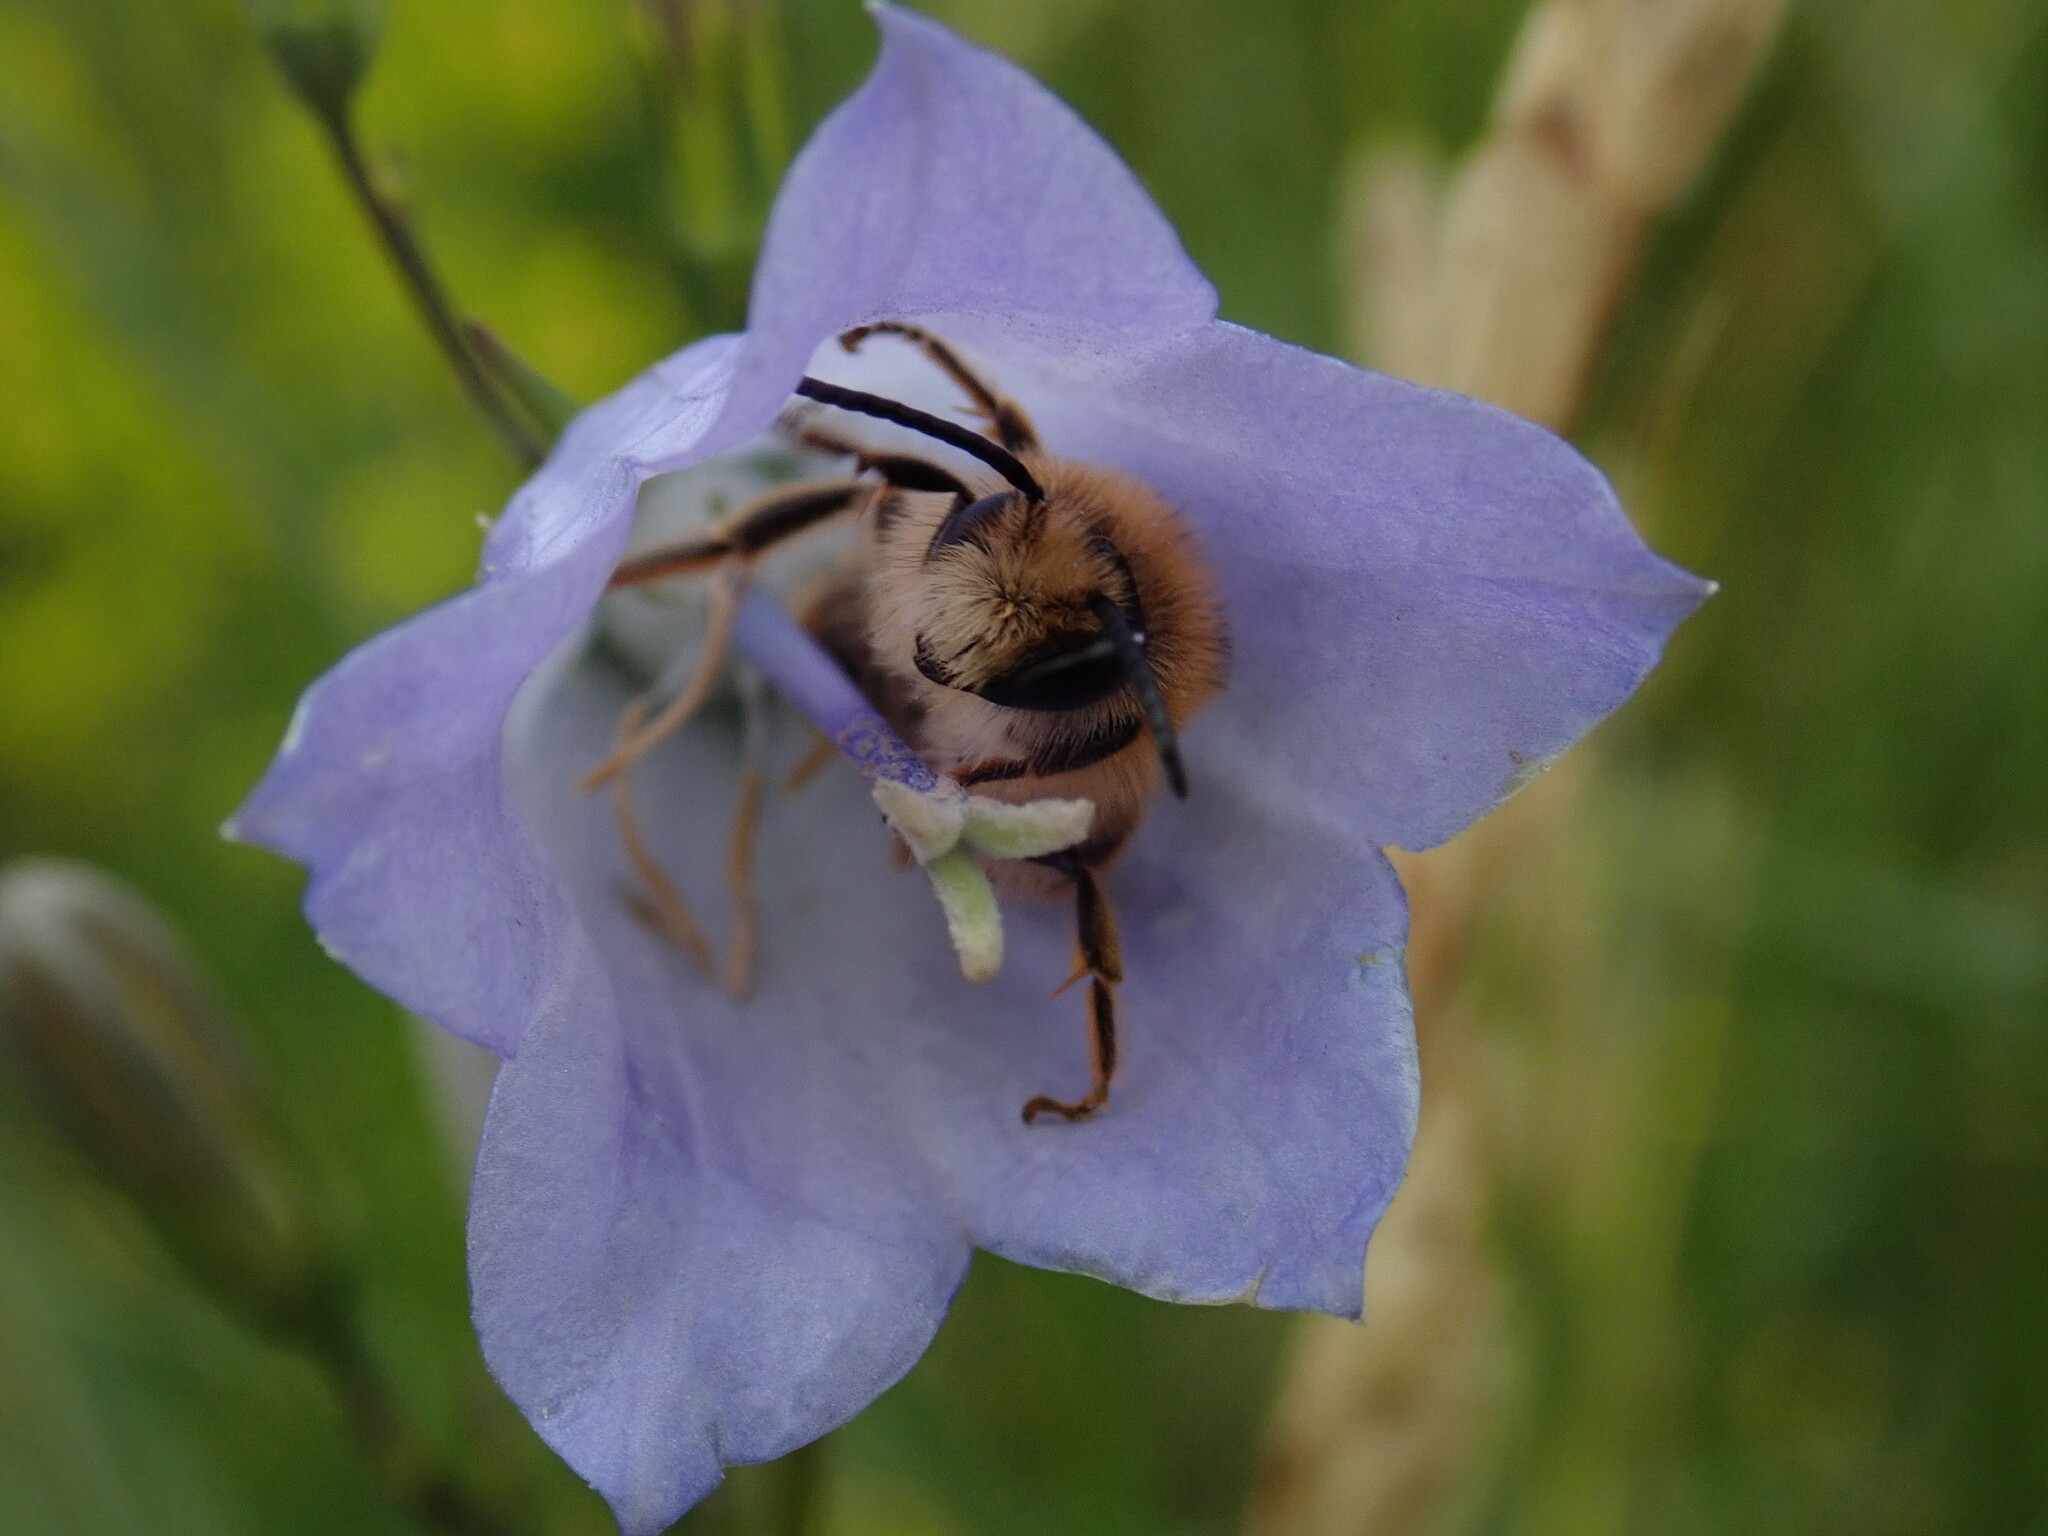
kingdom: Animalia
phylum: Arthropoda
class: Insecta
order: Hymenoptera
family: Melittidae
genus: Melitta
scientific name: Melitta haemorrhoidalis
